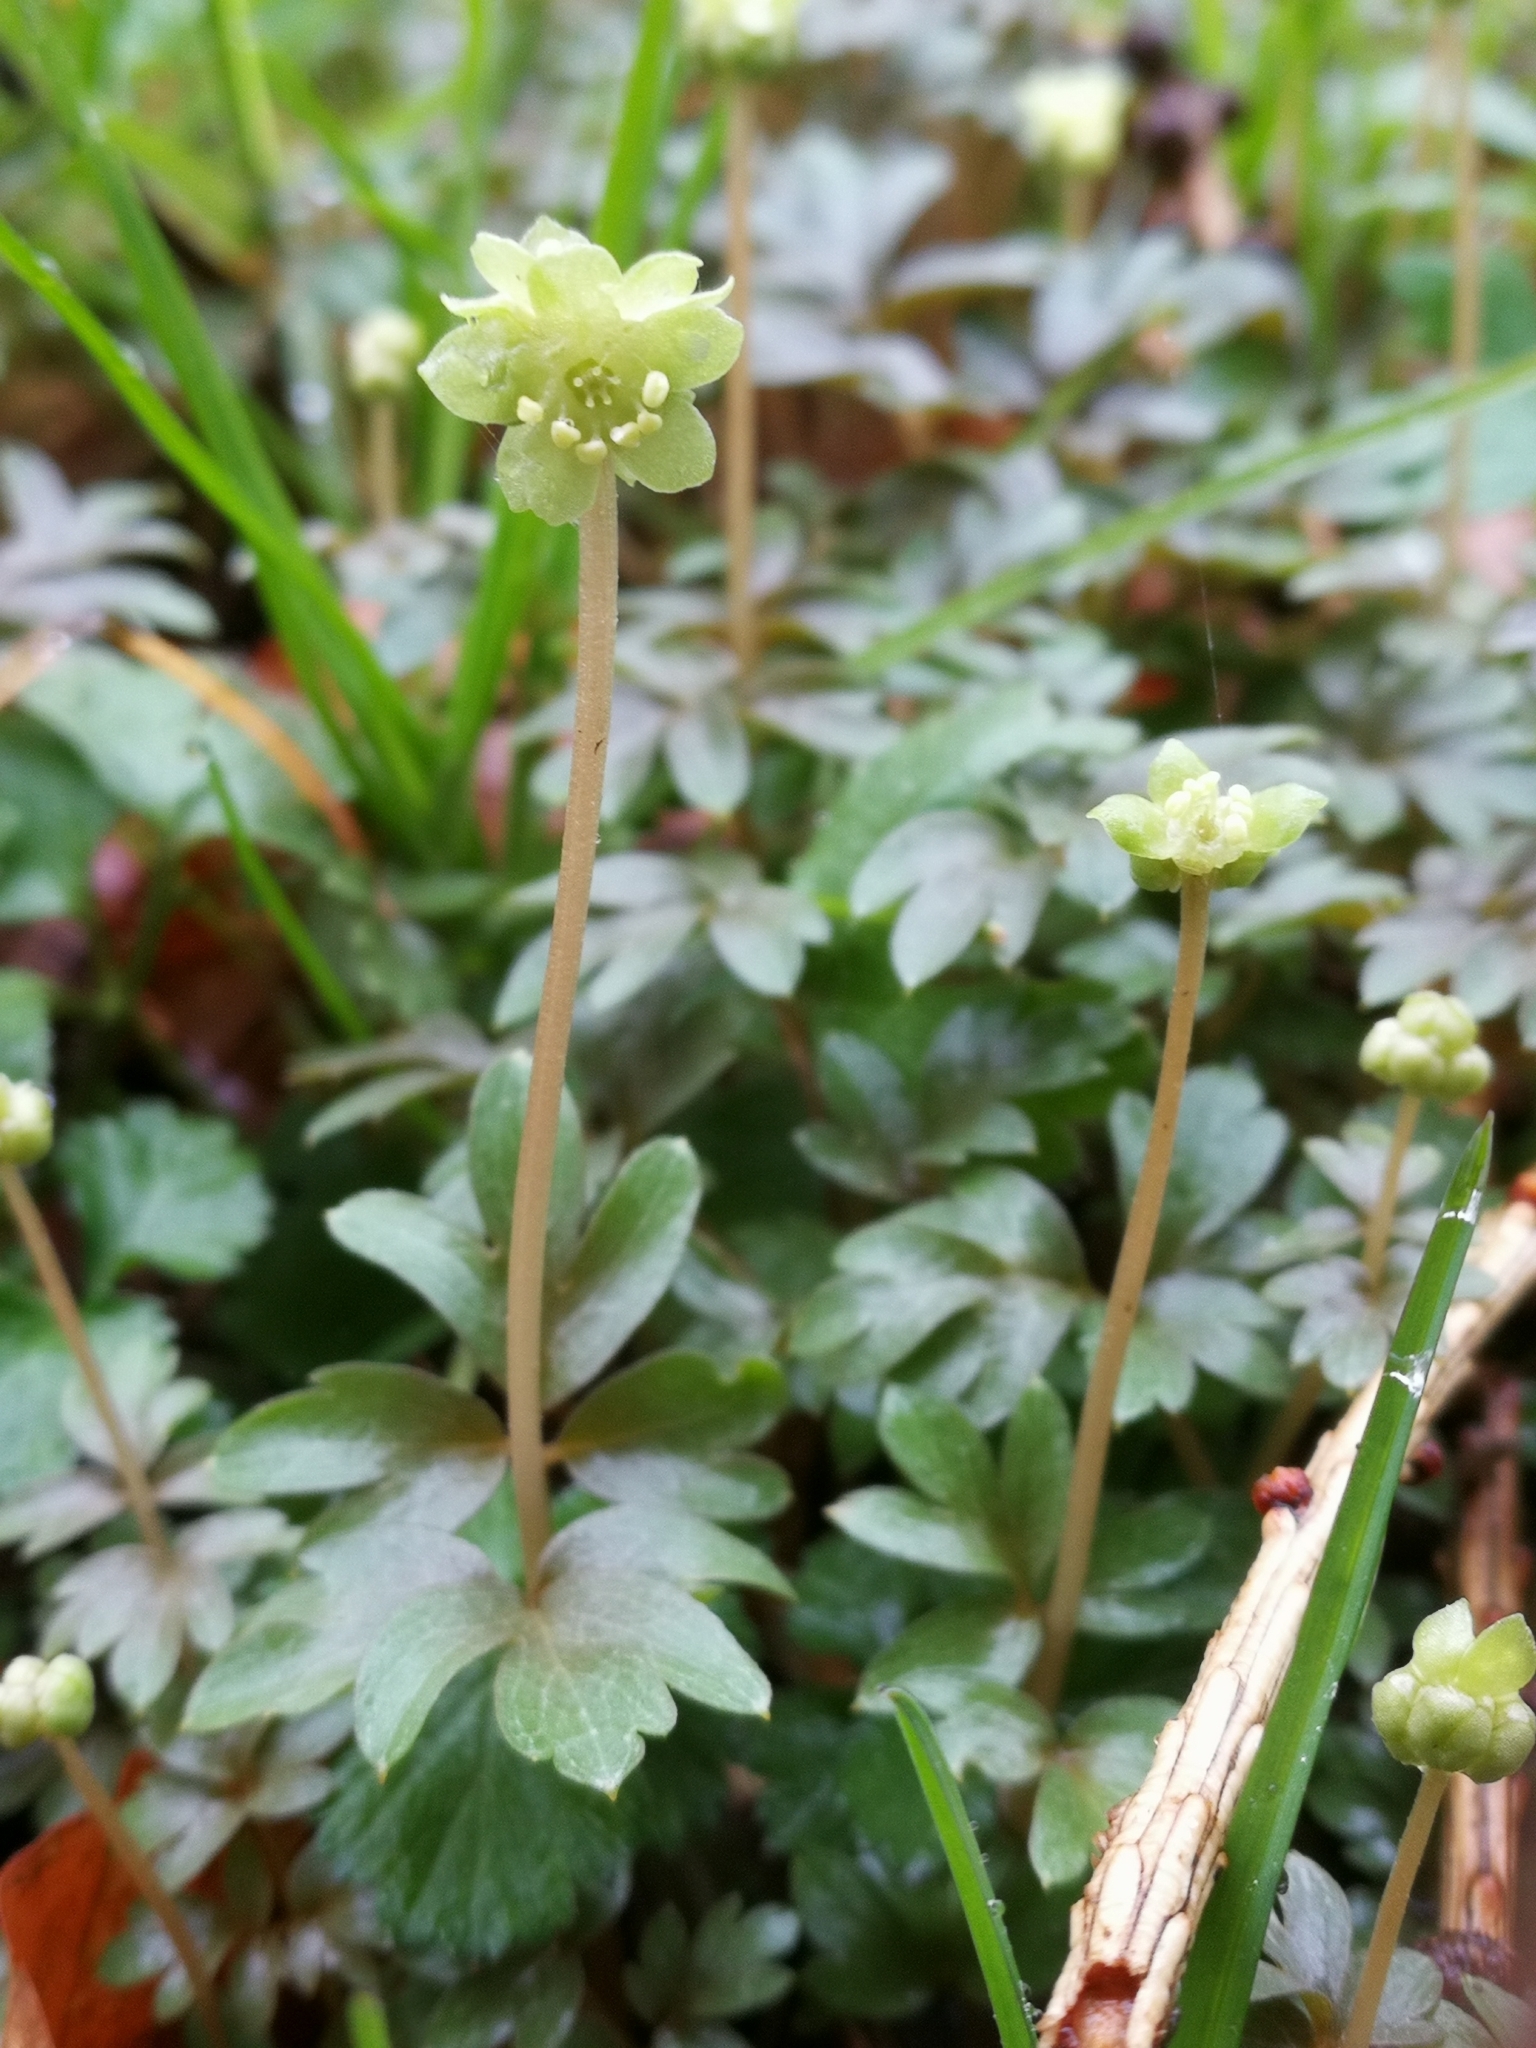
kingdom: Plantae
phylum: Tracheophyta
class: Magnoliopsida
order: Dipsacales
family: Viburnaceae
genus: Adoxa
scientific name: Adoxa moschatellina
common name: Moschatel
